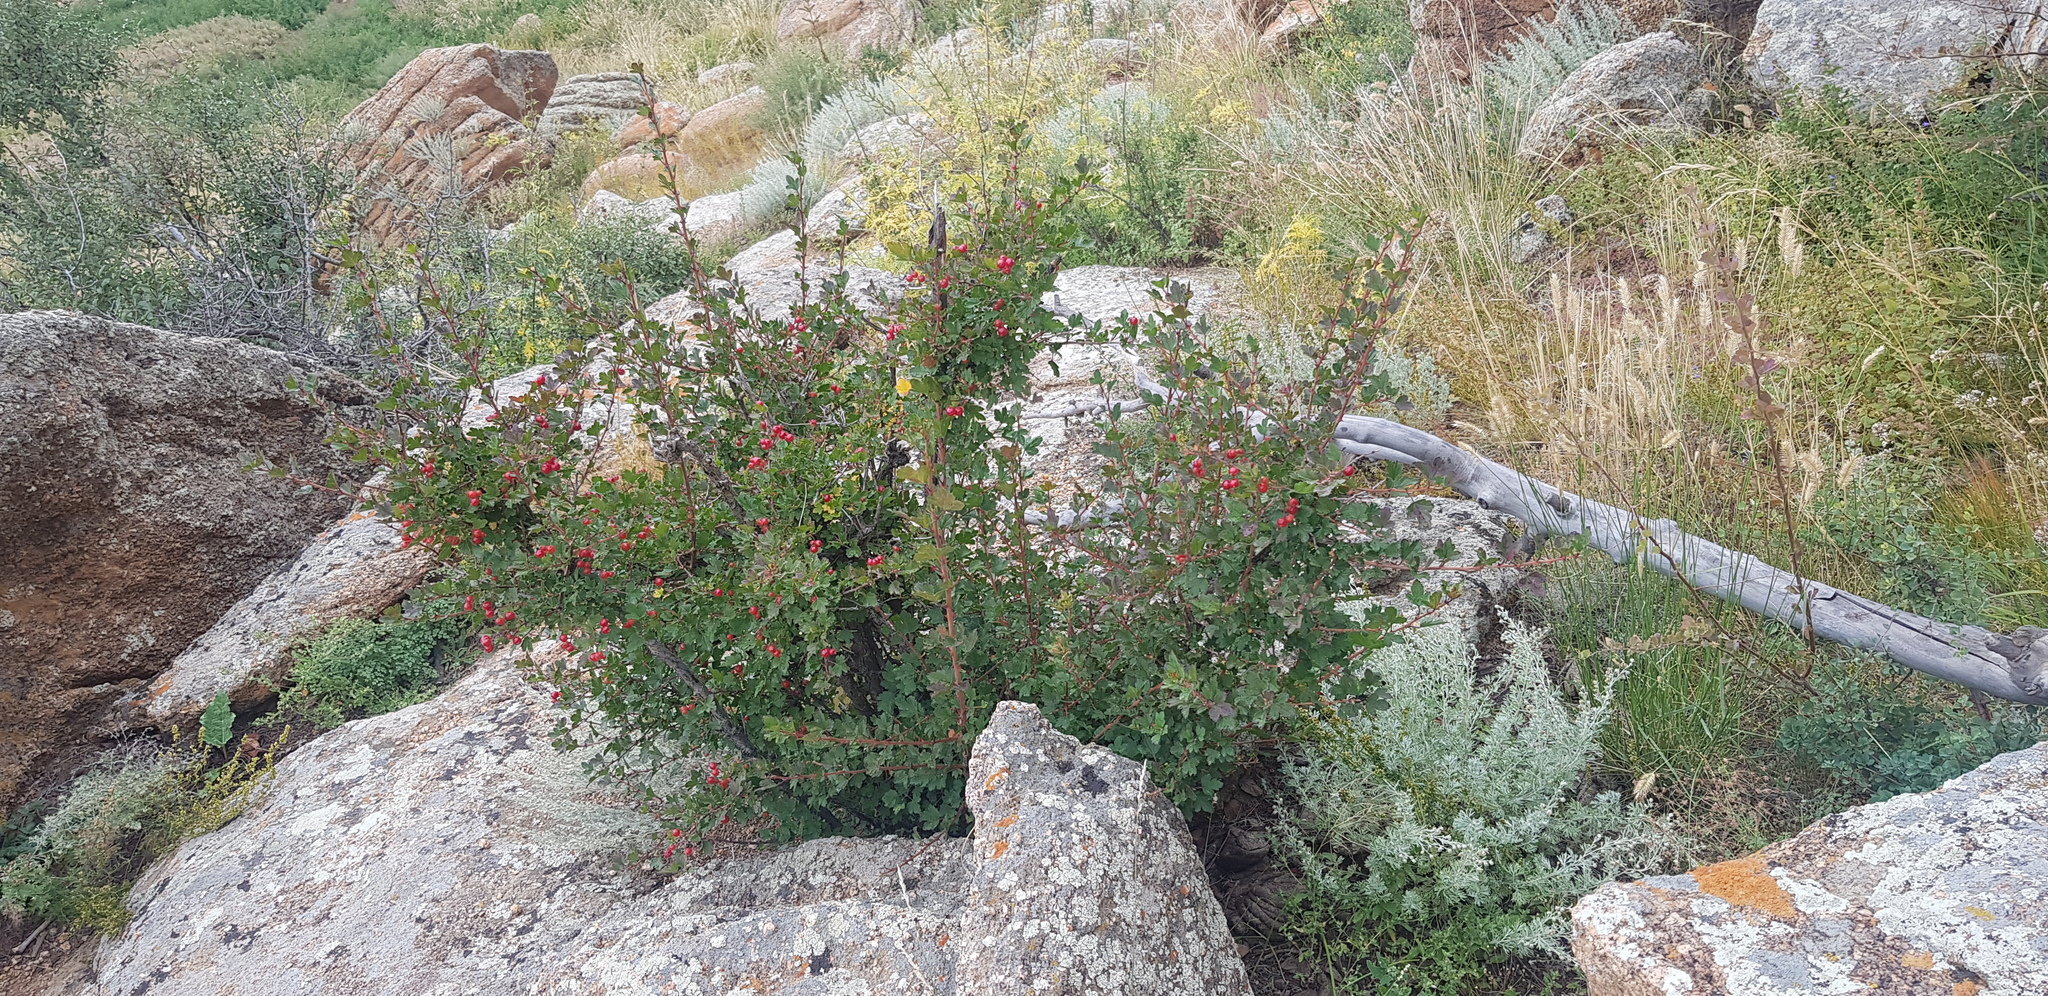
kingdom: Plantae
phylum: Tracheophyta
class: Magnoliopsida
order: Saxifragales
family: Grossulariaceae
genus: Ribes
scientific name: Ribes aciculare
